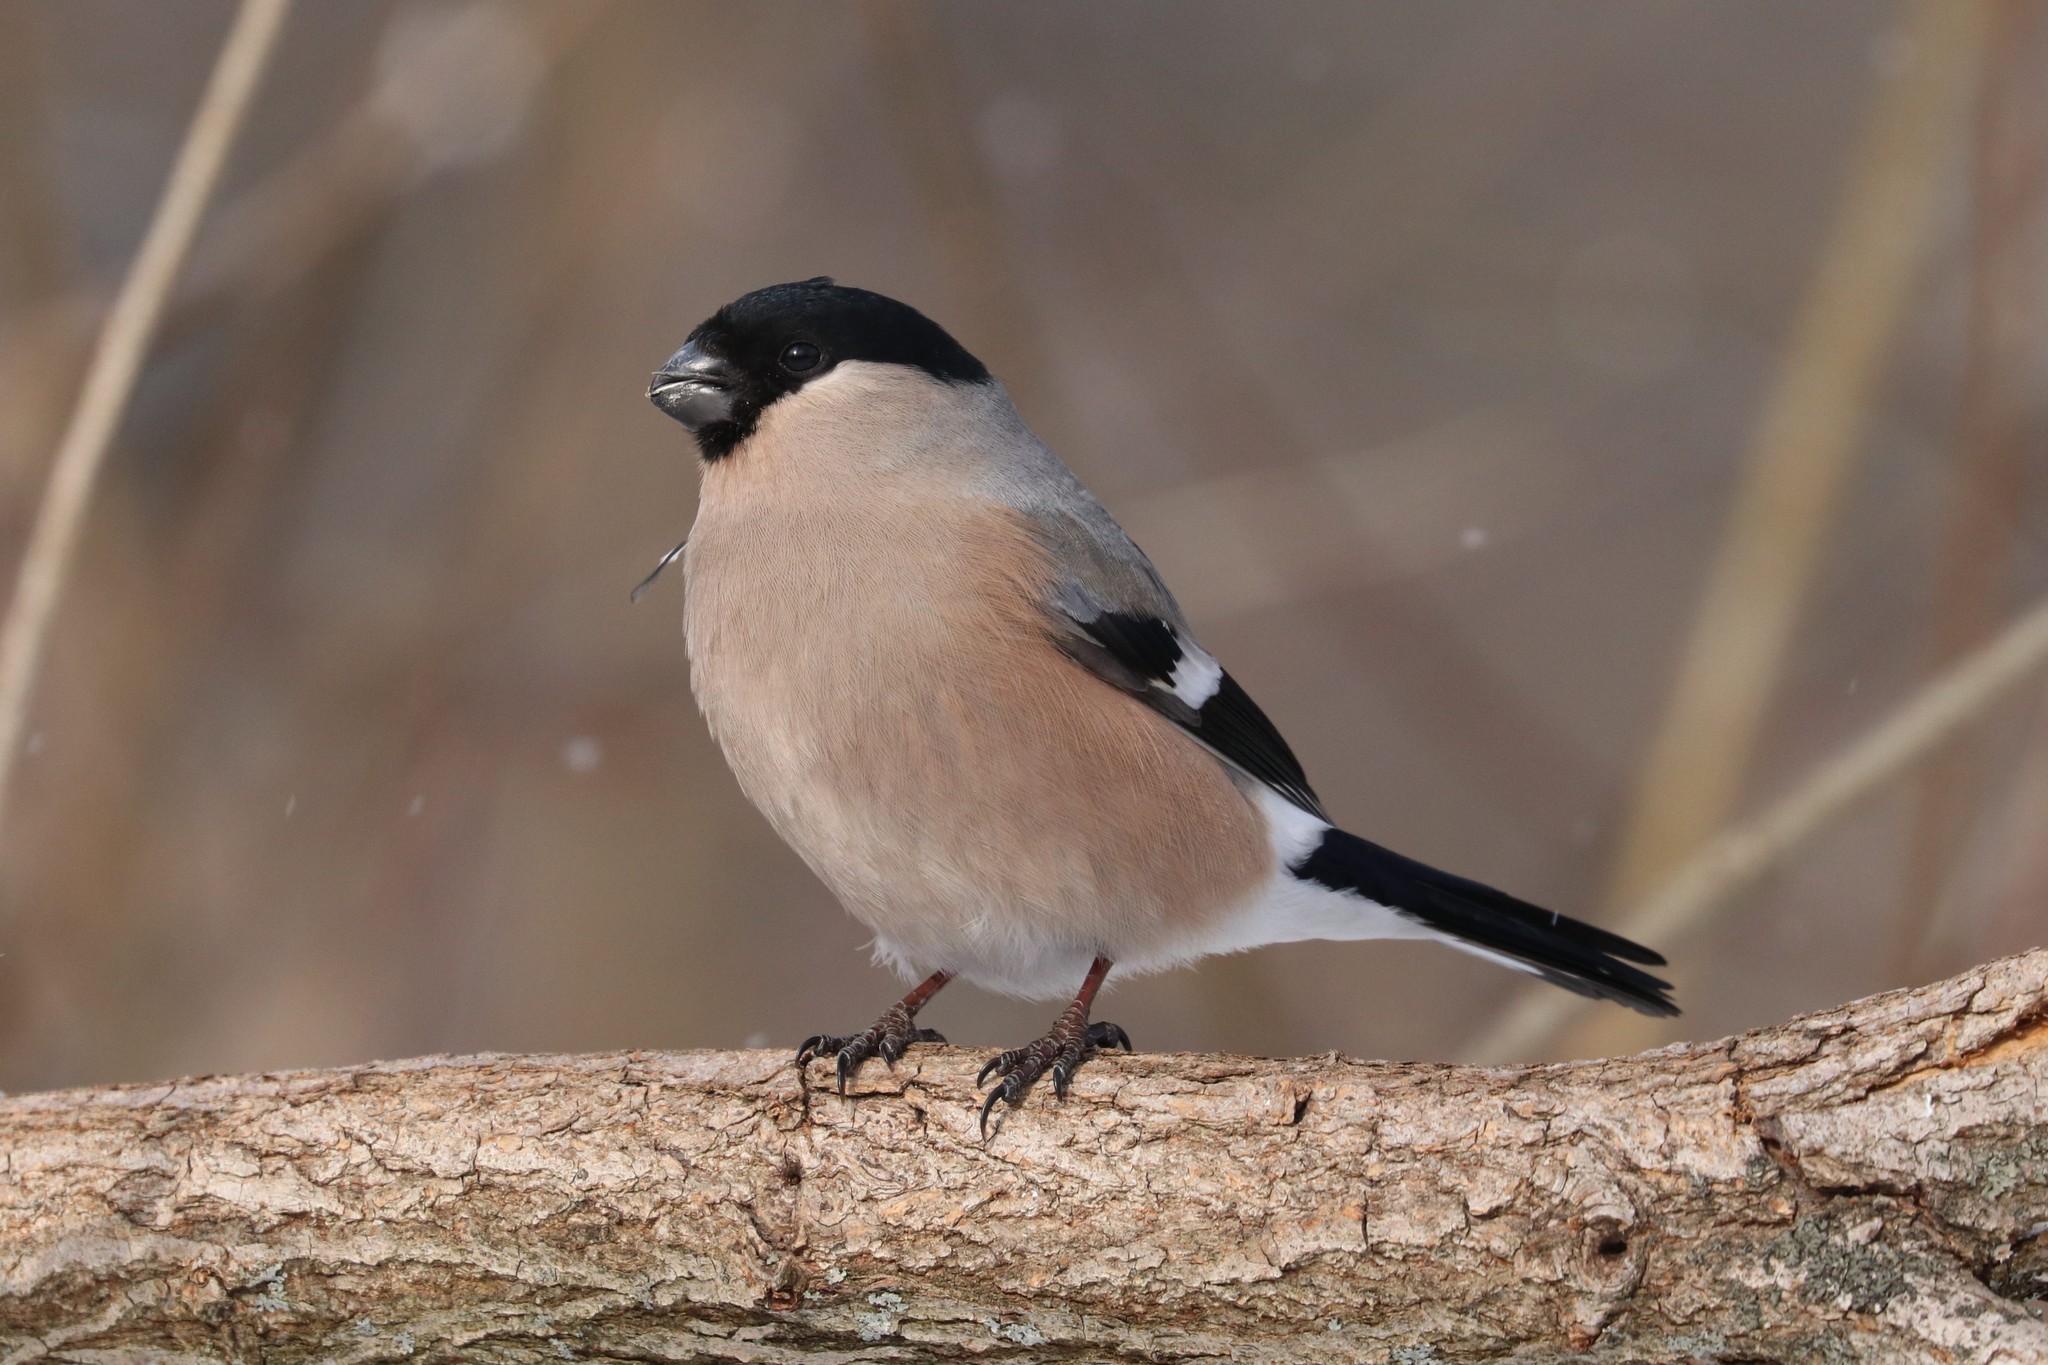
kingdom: Animalia
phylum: Chordata
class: Aves
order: Passeriformes
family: Fringillidae
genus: Pyrrhula
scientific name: Pyrrhula pyrrhula
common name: Eurasian bullfinch
